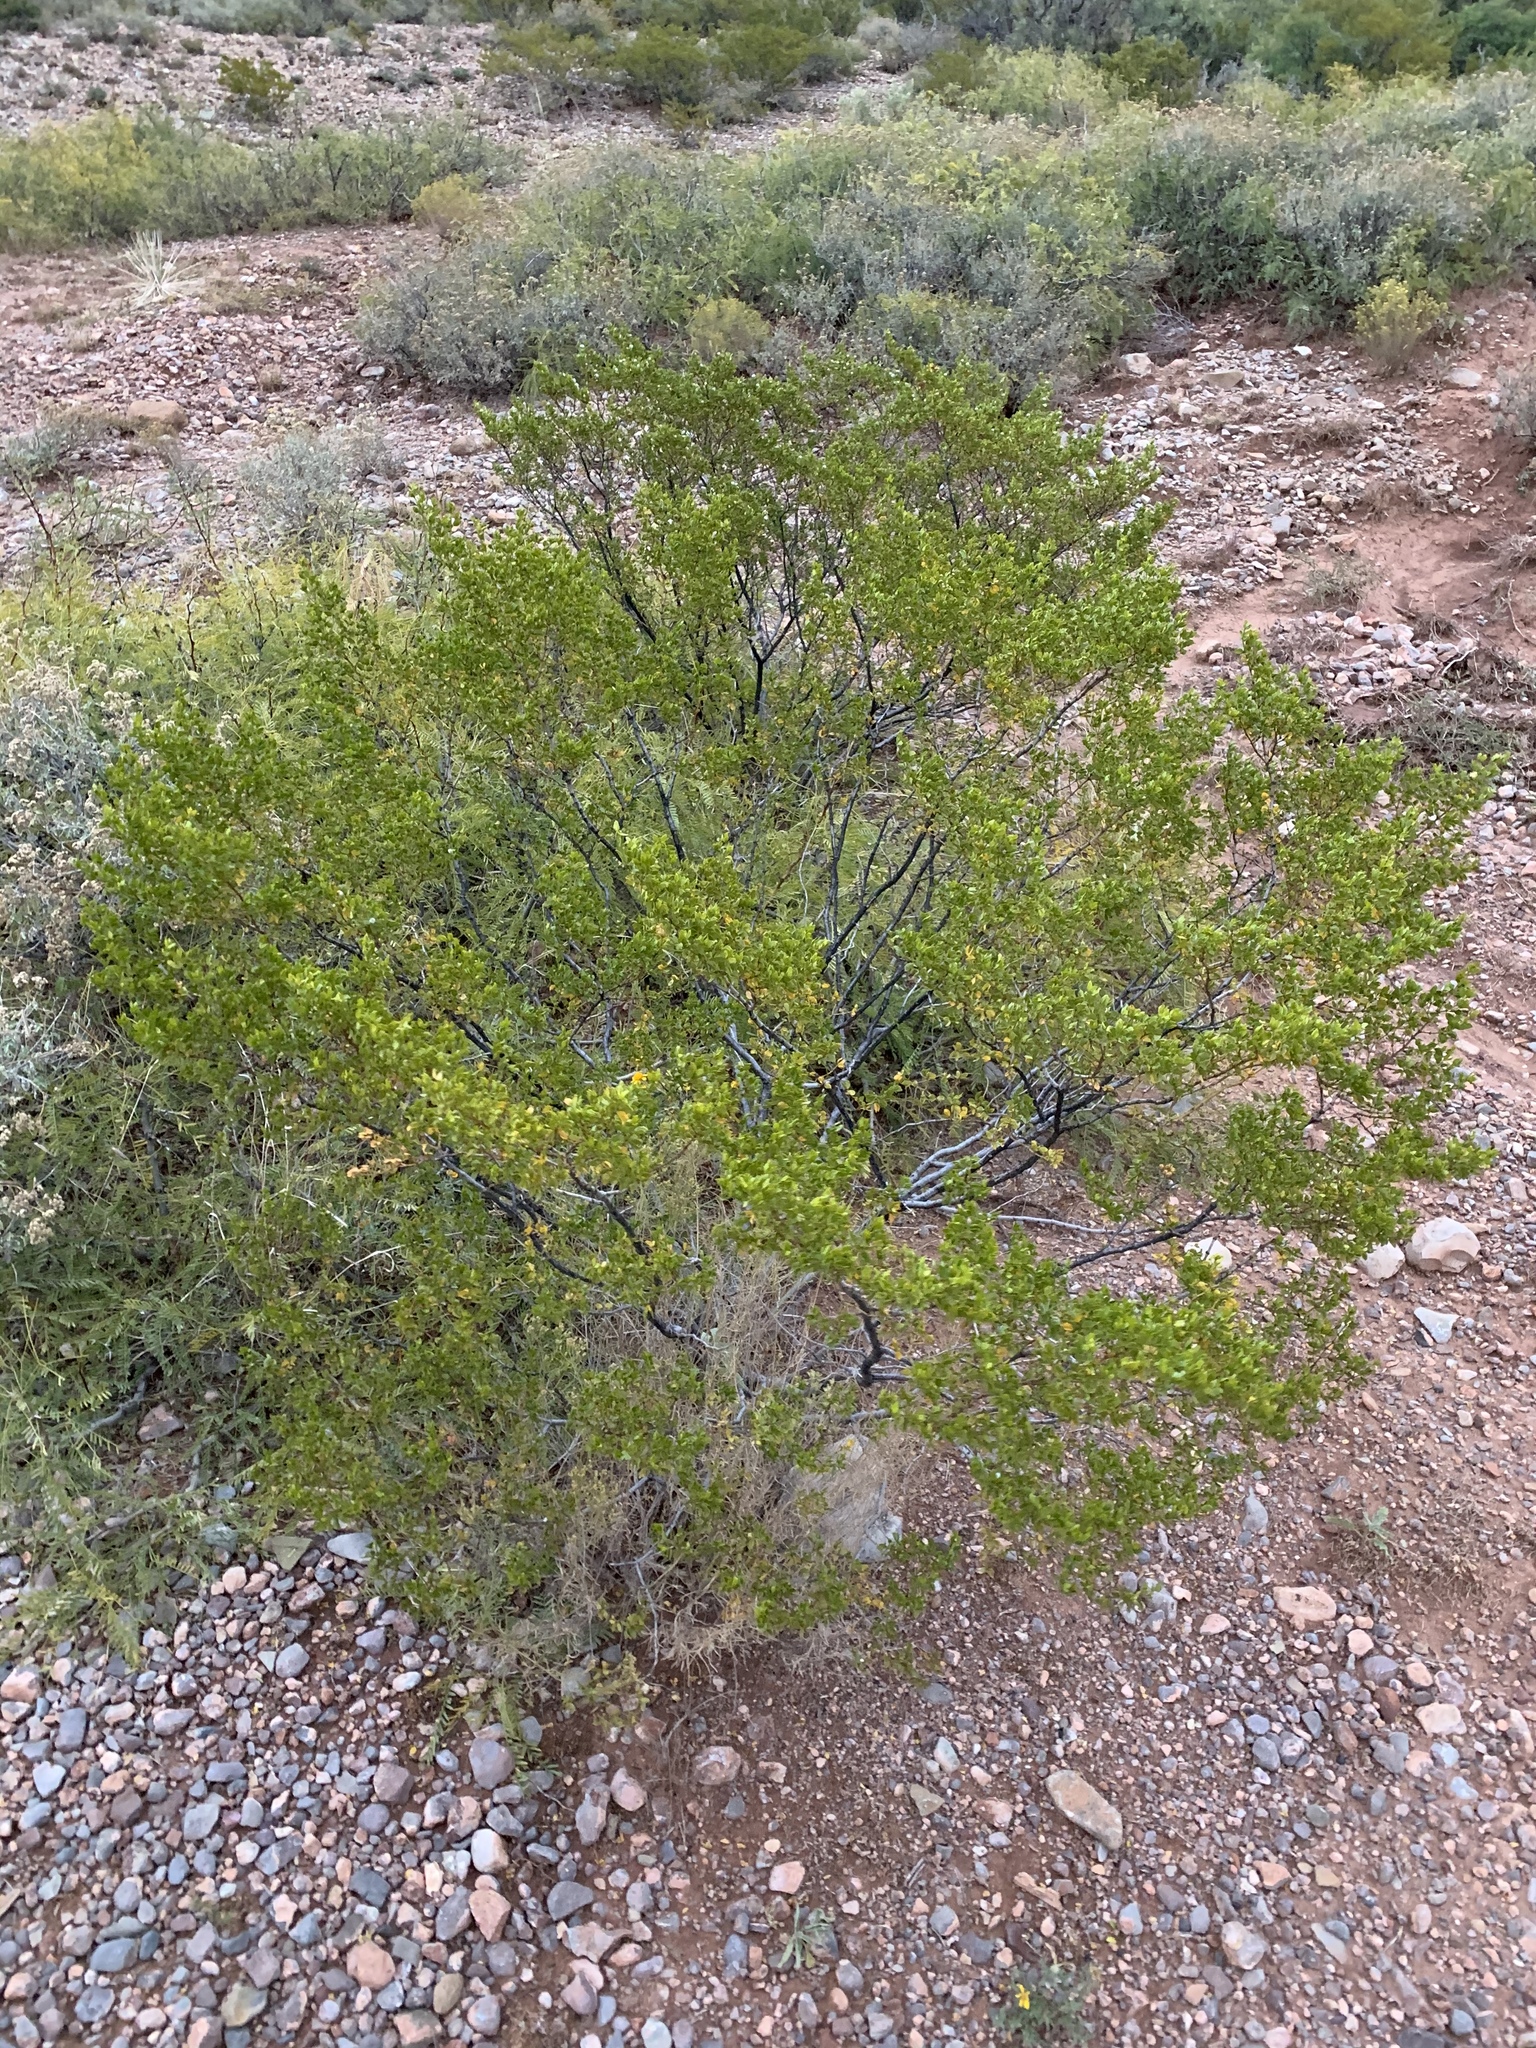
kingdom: Plantae
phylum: Tracheophyta
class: Magnoliopsida
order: Zygophyllales
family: Zygophyllaceae
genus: Larrea
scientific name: Larrea tridentata
